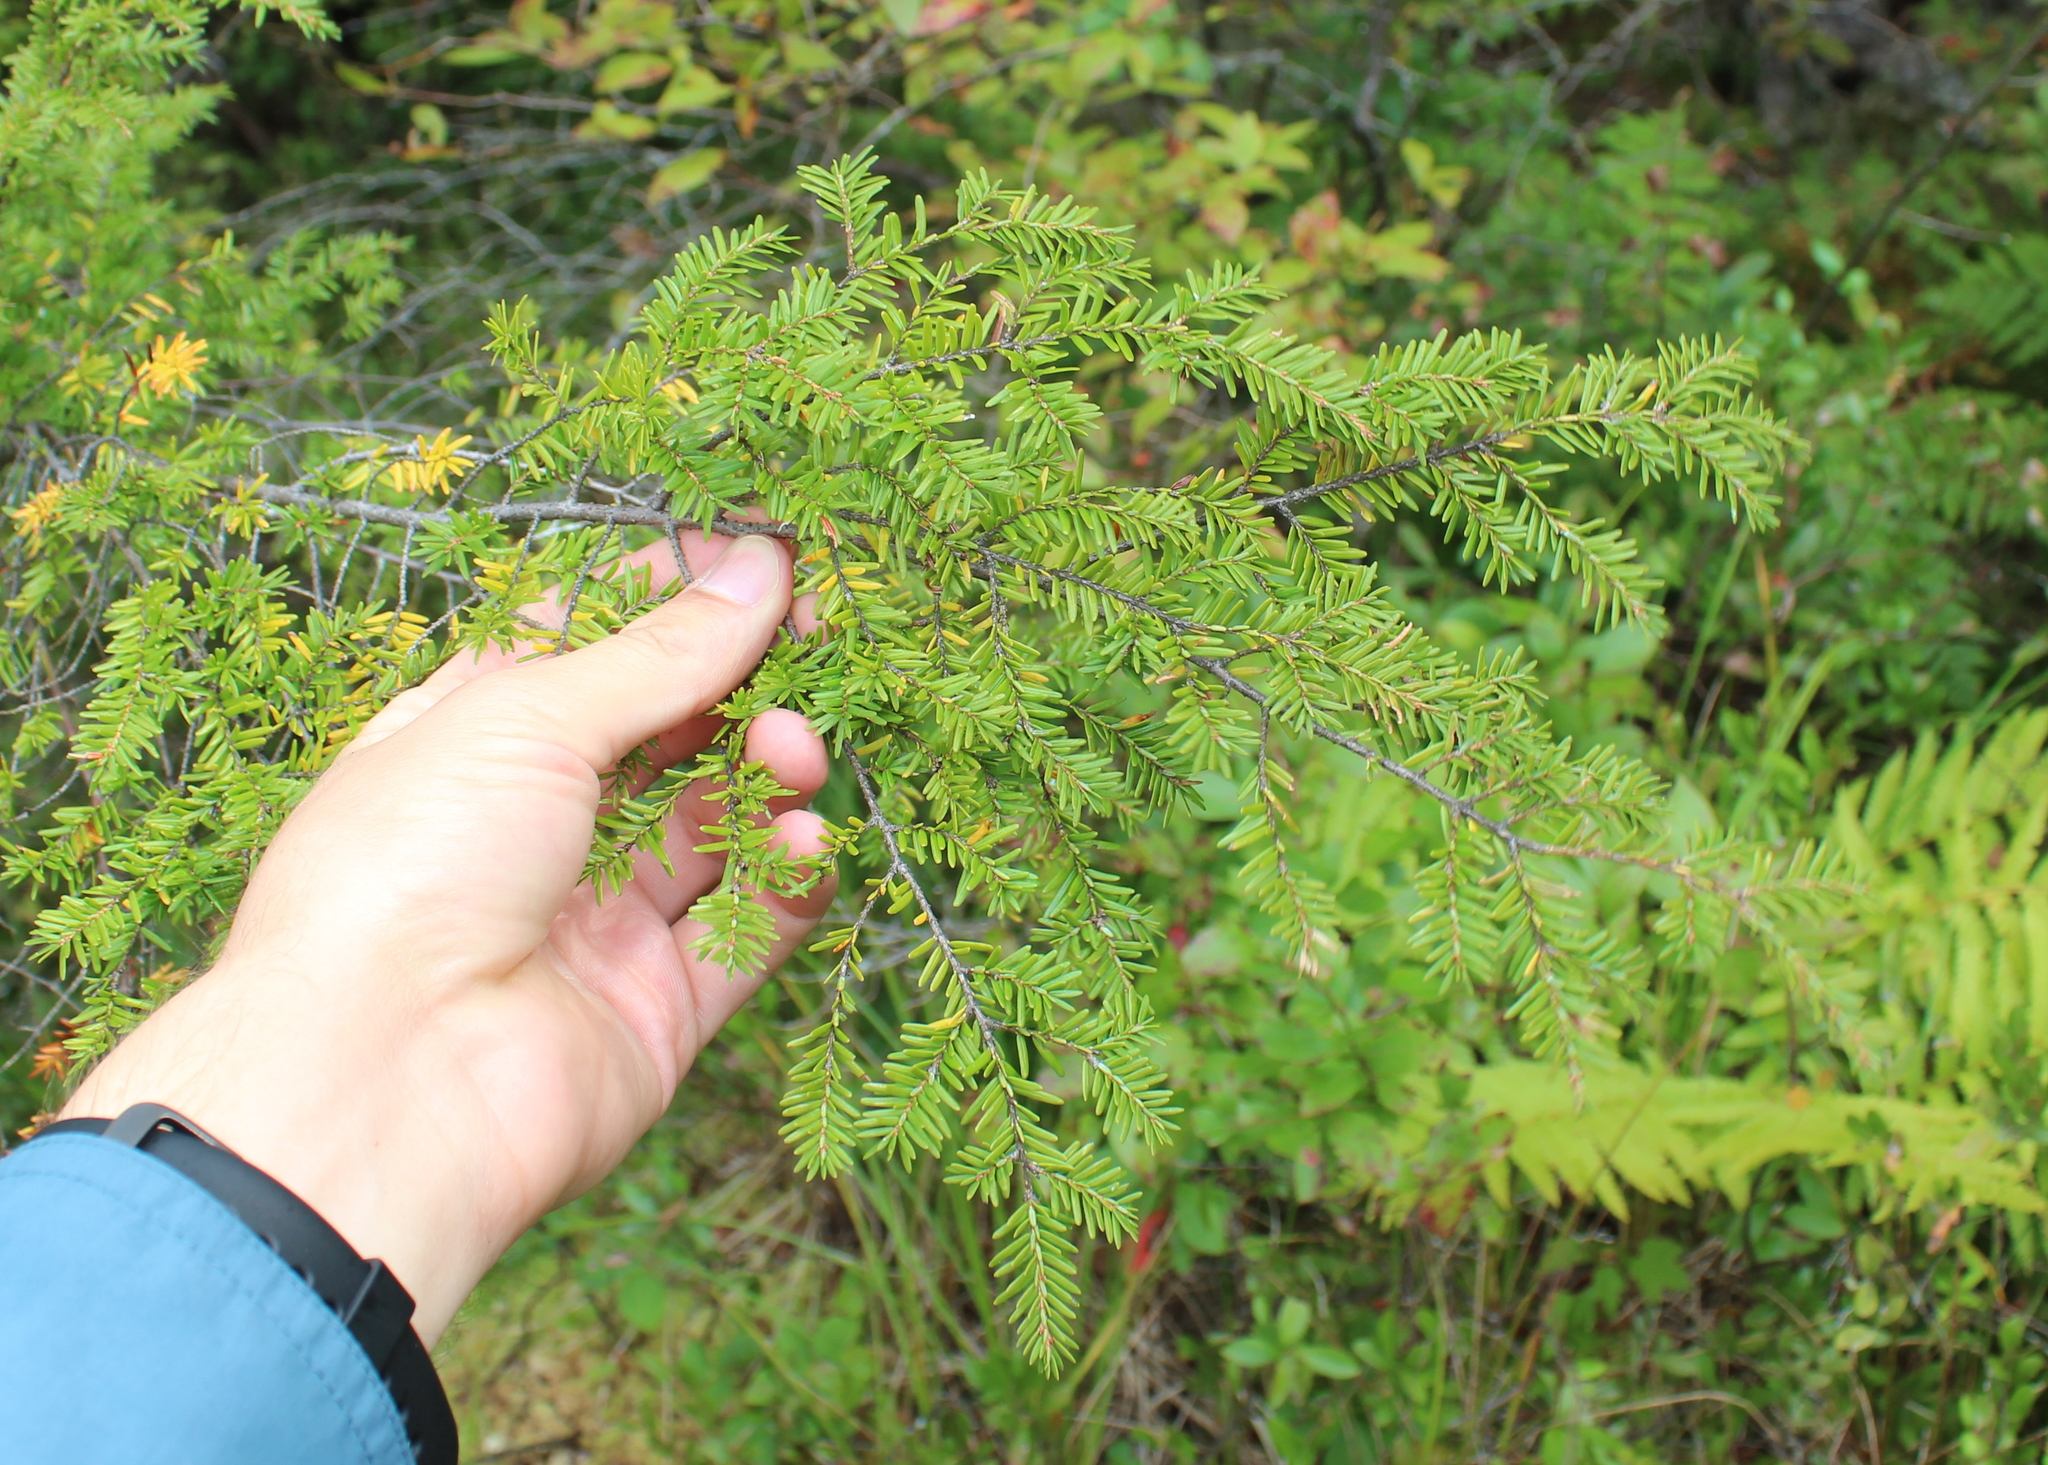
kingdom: Plantae
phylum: Tracheophyta
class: Pinopsida
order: Pinales
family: Pinaceae
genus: Tsuga
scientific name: Tsuga canadensis
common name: Eastern hemlock
